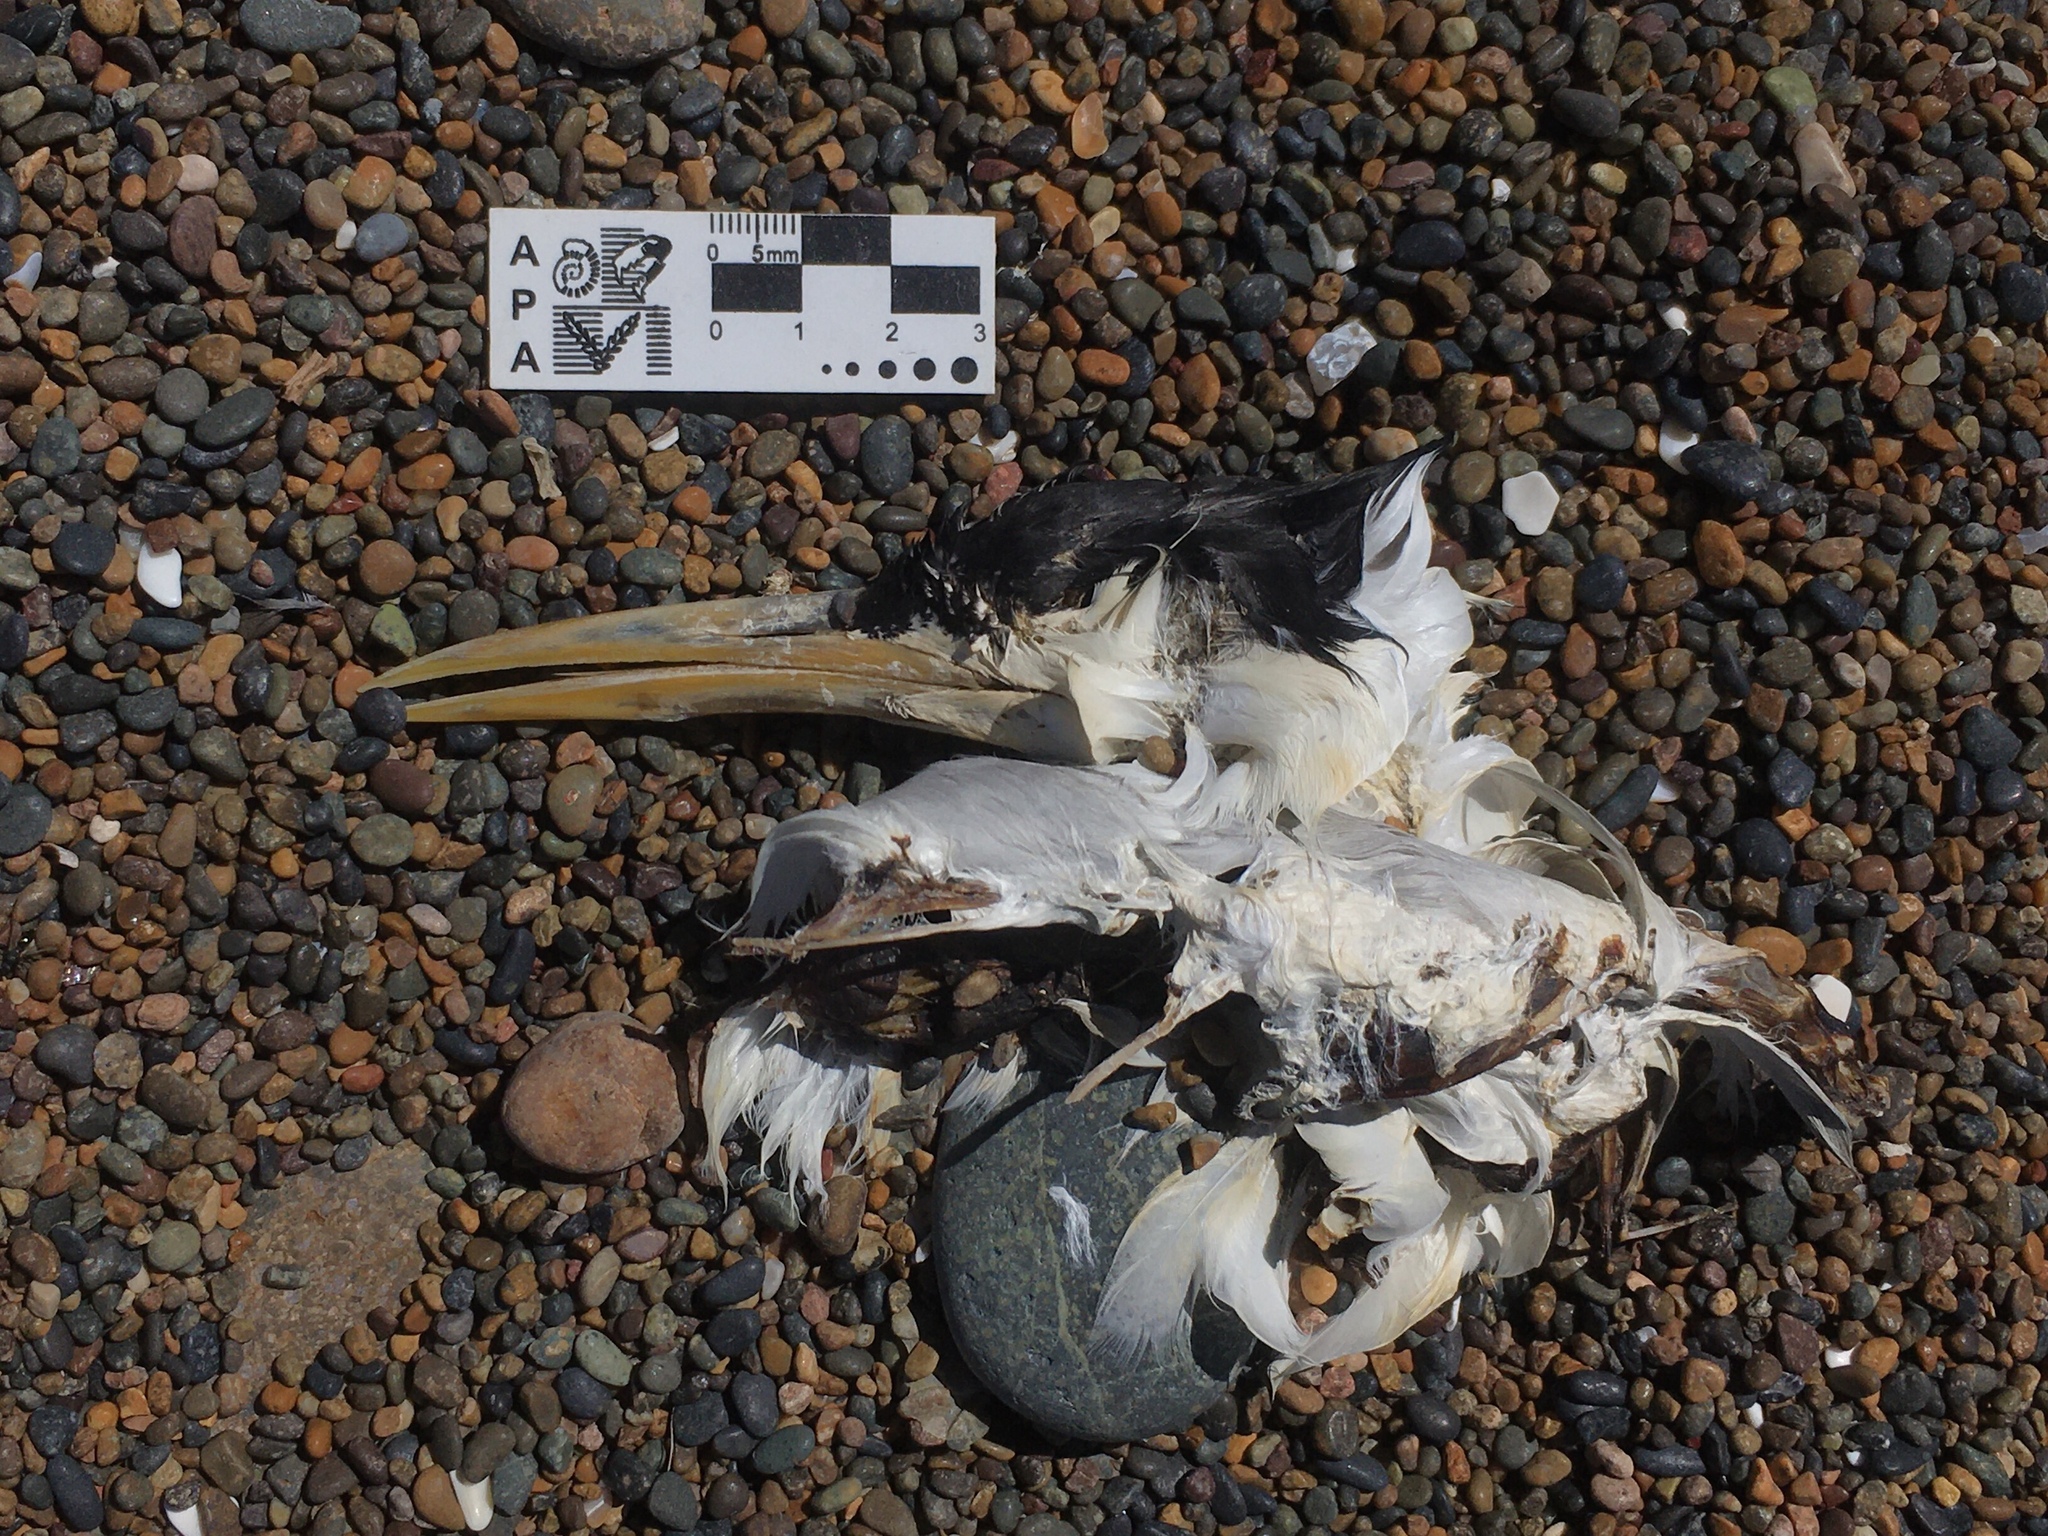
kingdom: Animalia
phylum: Chordata
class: Aves
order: Charadriiformes
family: Laridae
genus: Thalasseus
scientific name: Thalasseus acuflavidus
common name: Cabot's tern
